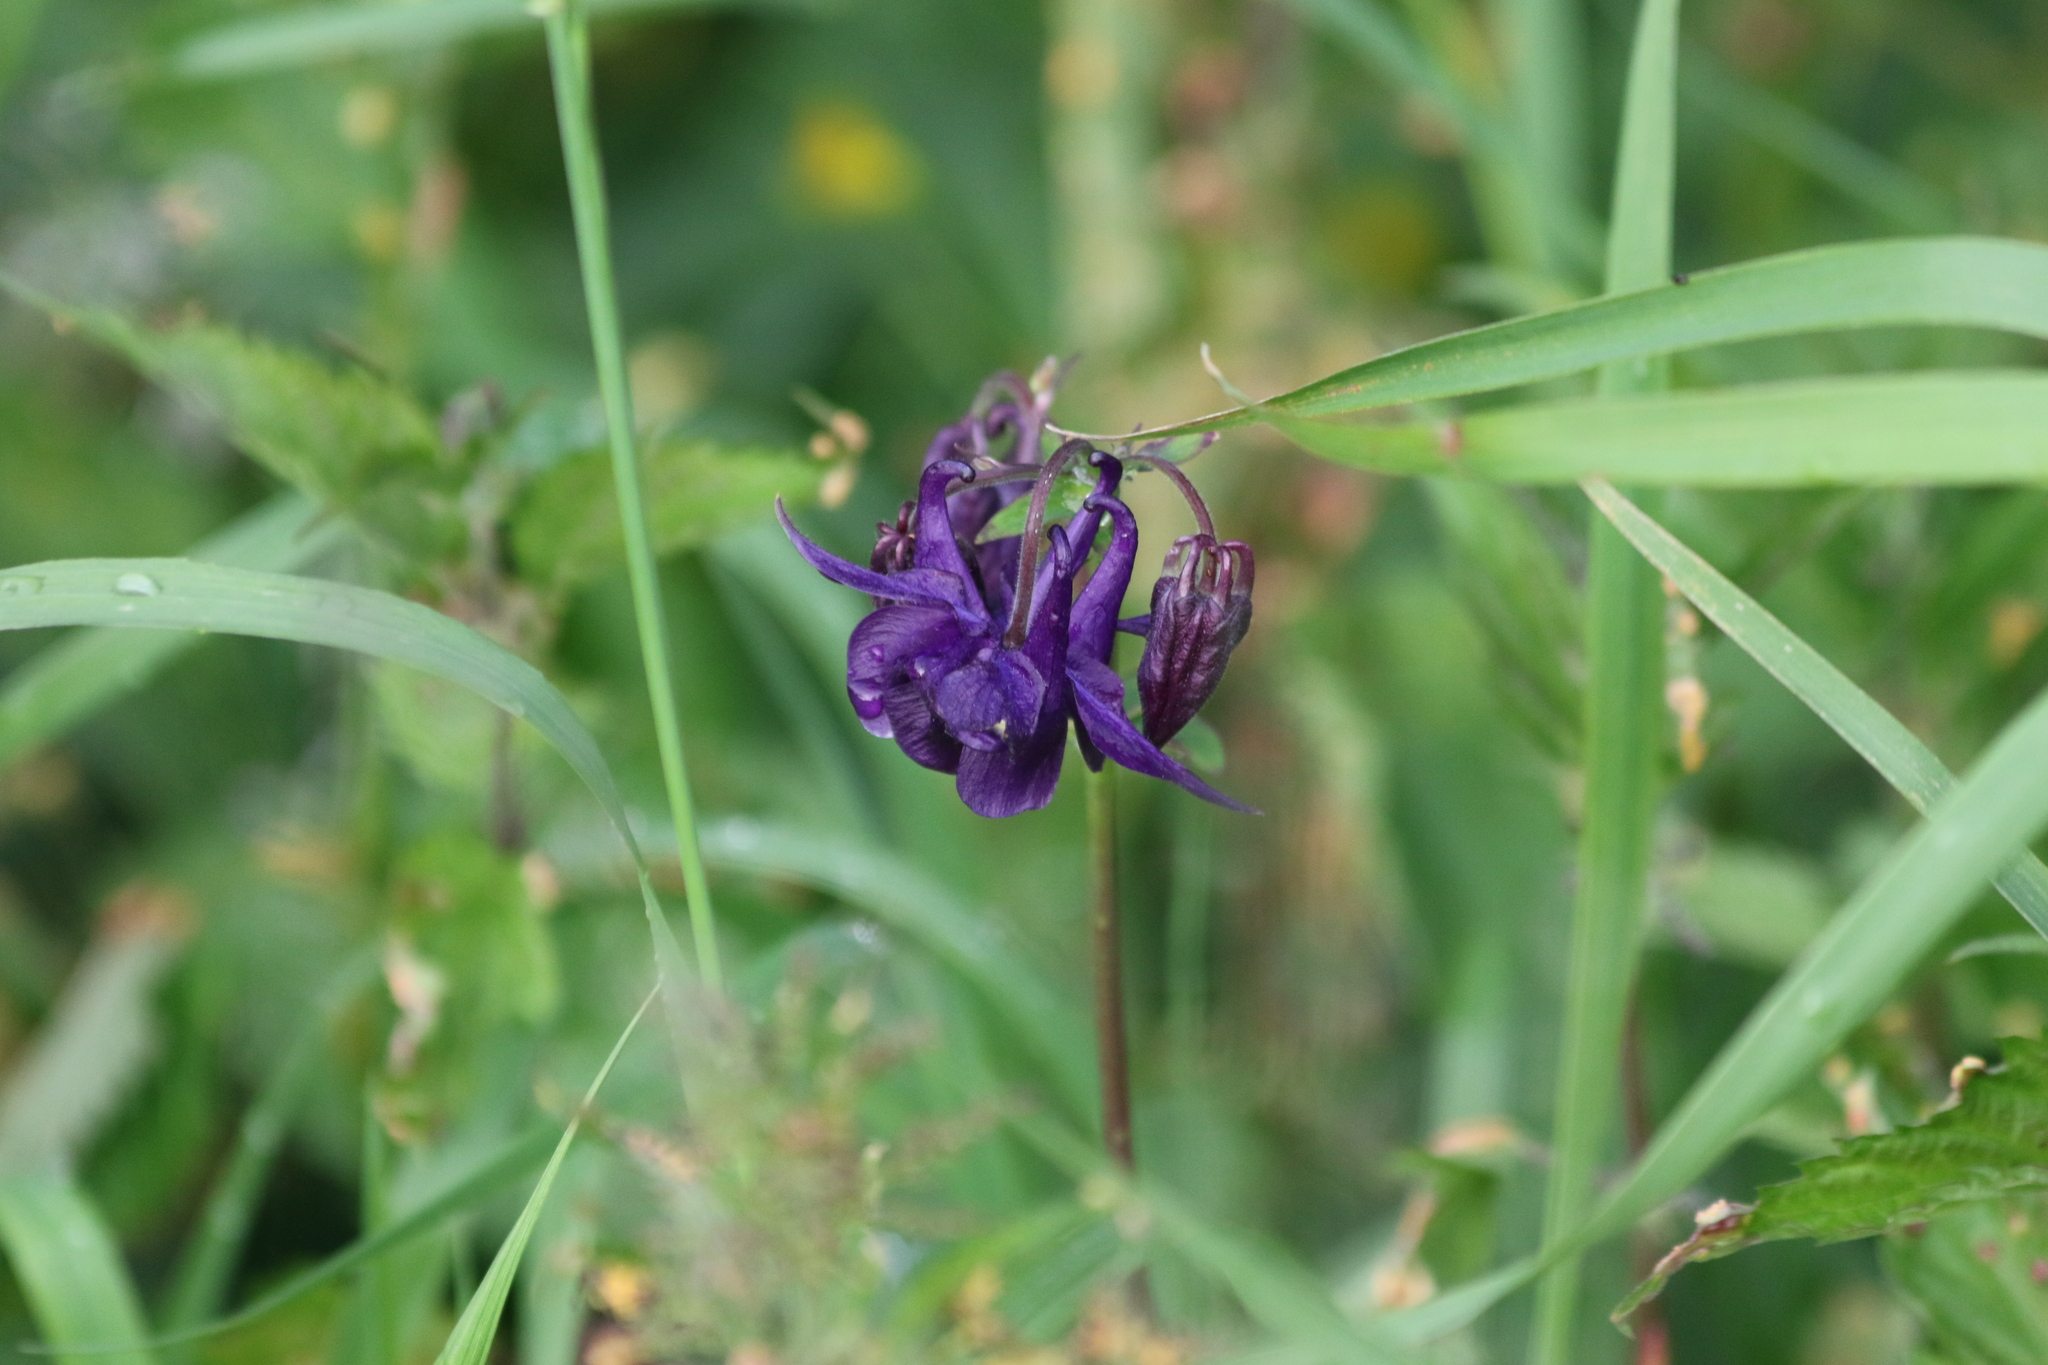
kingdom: Plantae
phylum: Tracheophyta
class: Magnoliopsida
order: Ranunculales
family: Ranunculaceae
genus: Aquilegia
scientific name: Aquilegia vulgaris
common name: Columbine
